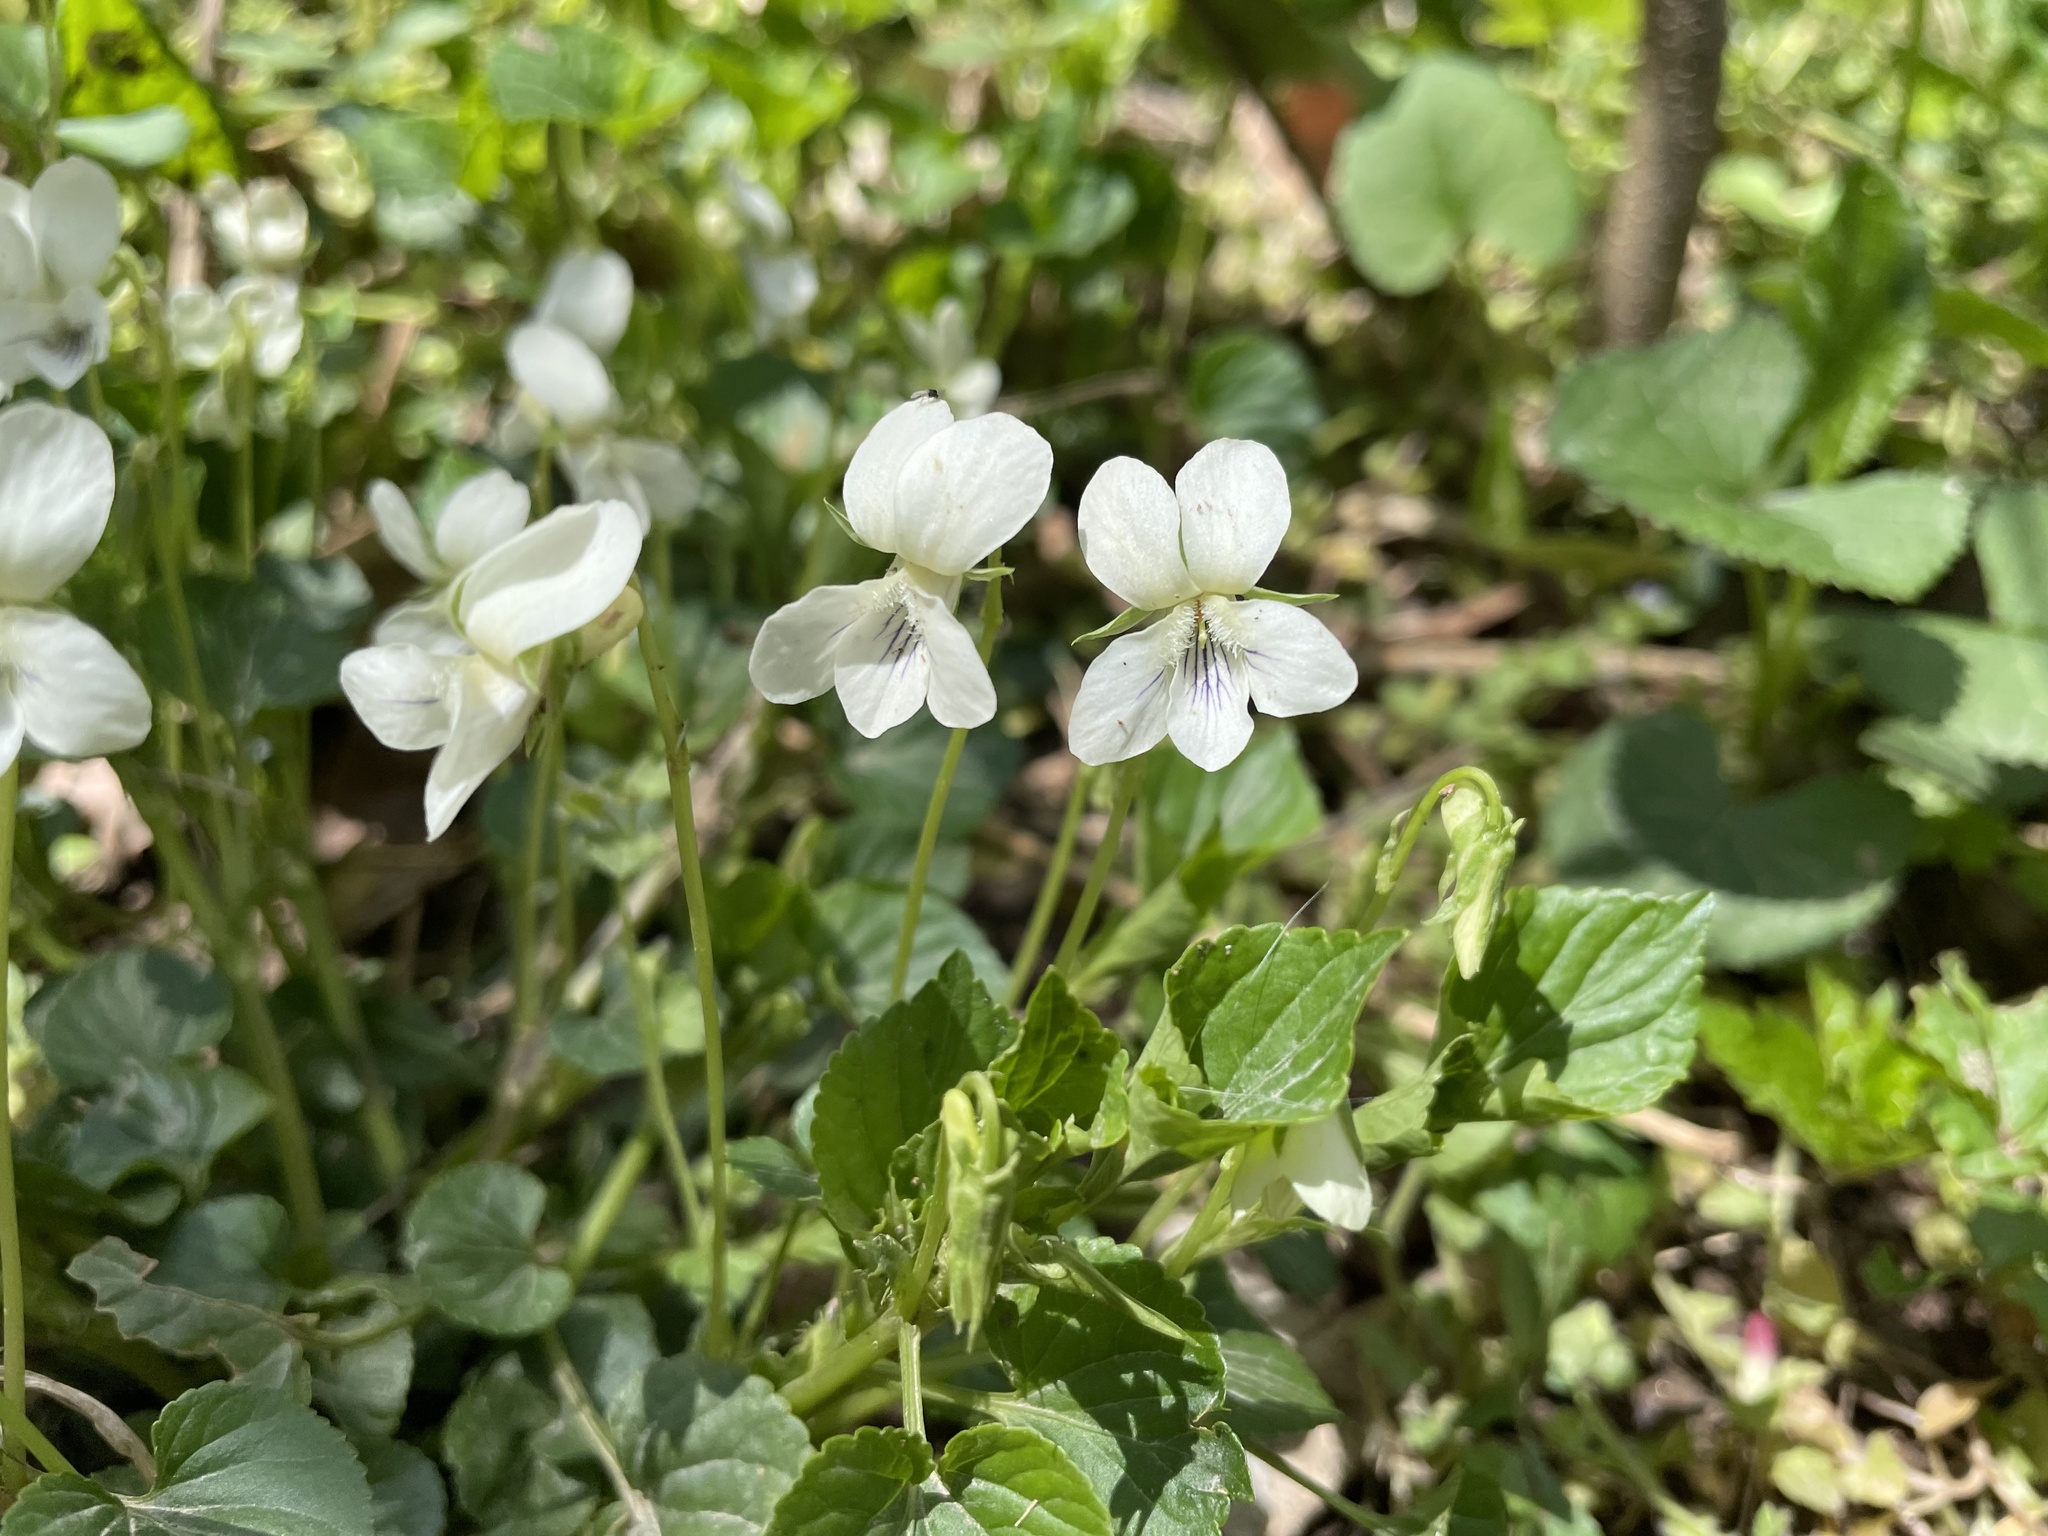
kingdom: Plantae
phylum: Tracheophyta
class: Magnoliopsida
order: Malpighiales
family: Violaceae
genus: Viola
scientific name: Viola striata
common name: Cream violet
